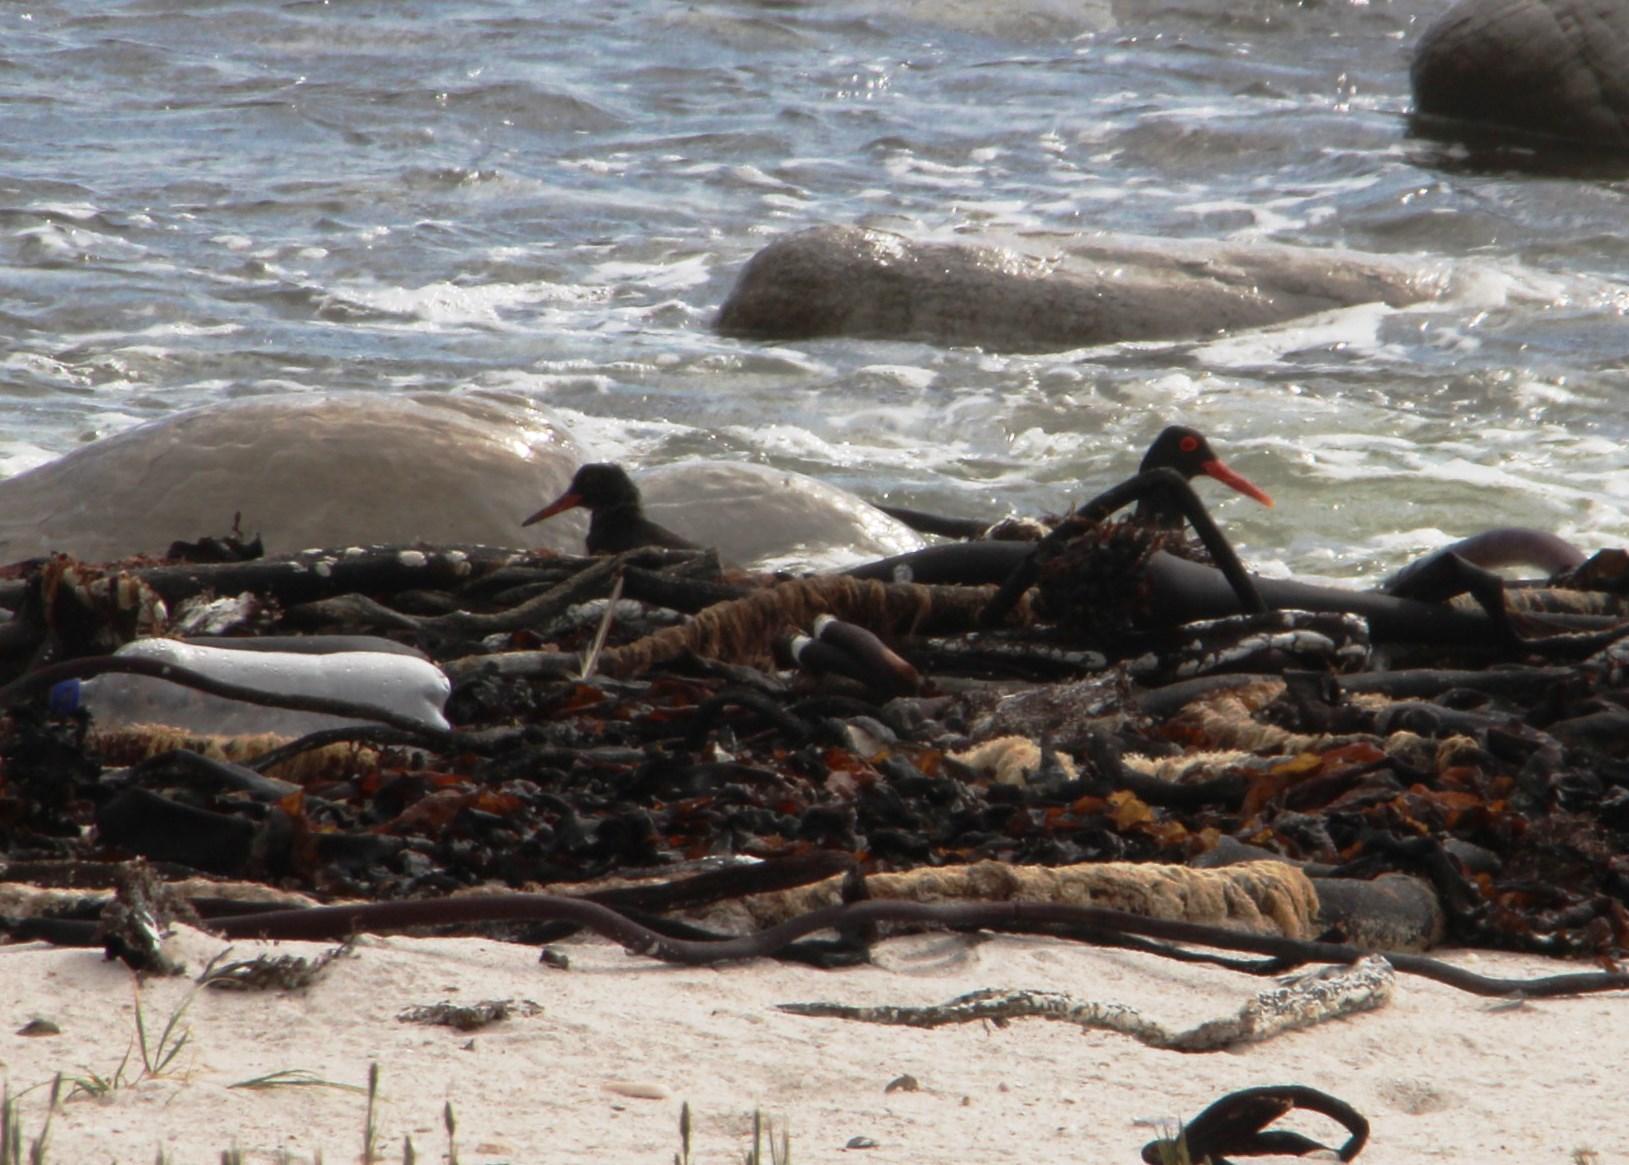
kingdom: Animalia
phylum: Chordata
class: Aves
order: Charadriiformes
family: Haematopodidae
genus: Haematopus
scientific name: Haematopus moquini
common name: African oystercatcher
